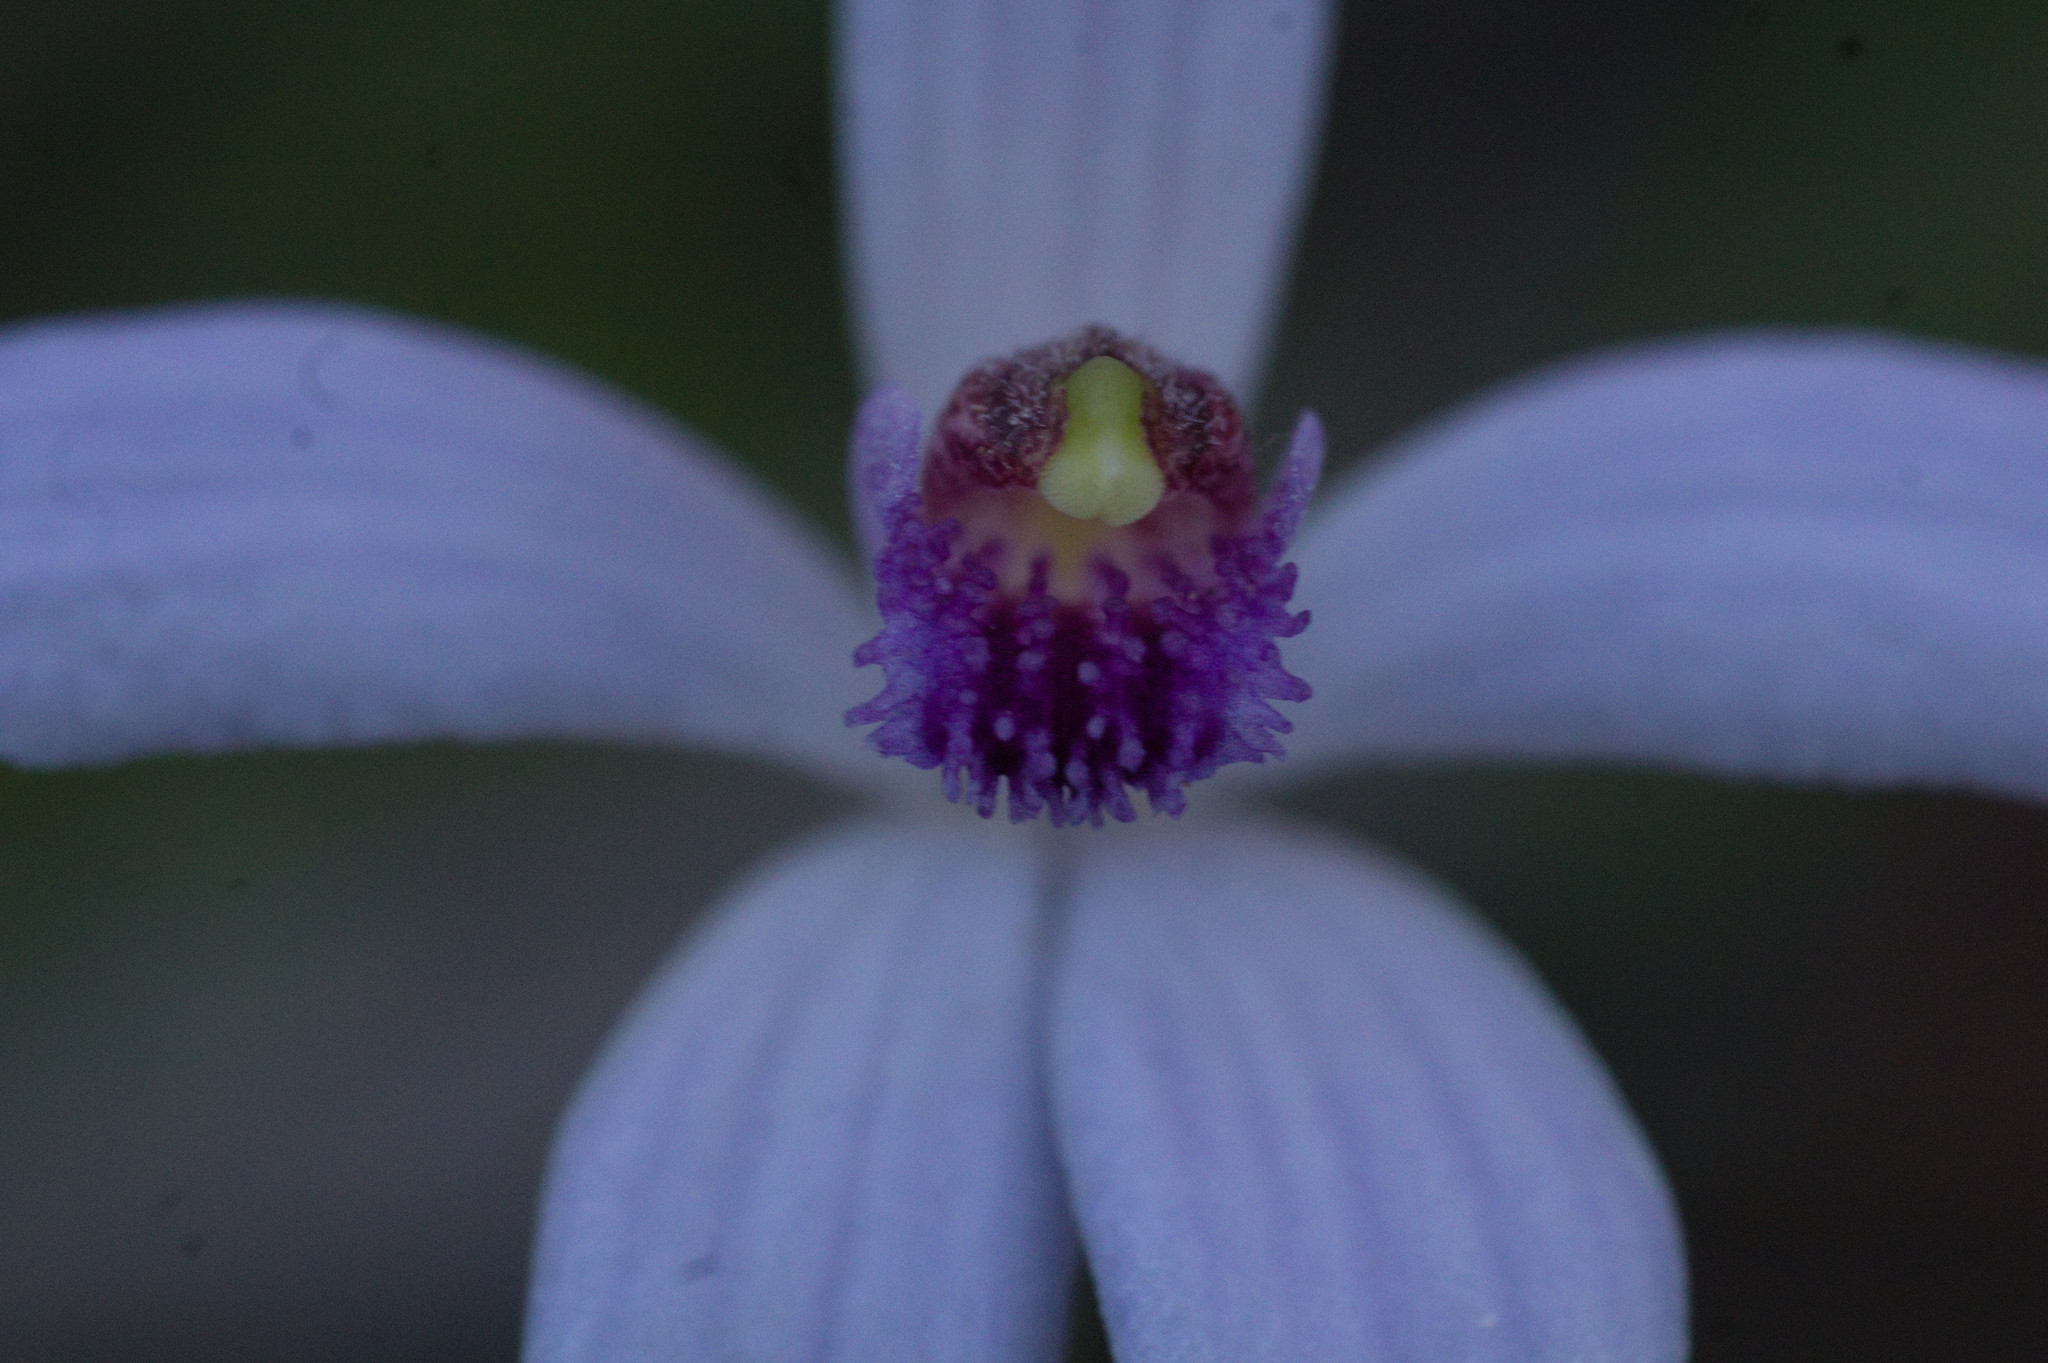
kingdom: Plantae
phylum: Tracheophyta
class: Liliopsida
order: Asparagales
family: Orchidaceae
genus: Pheladenia
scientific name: Pheladenia deformis
